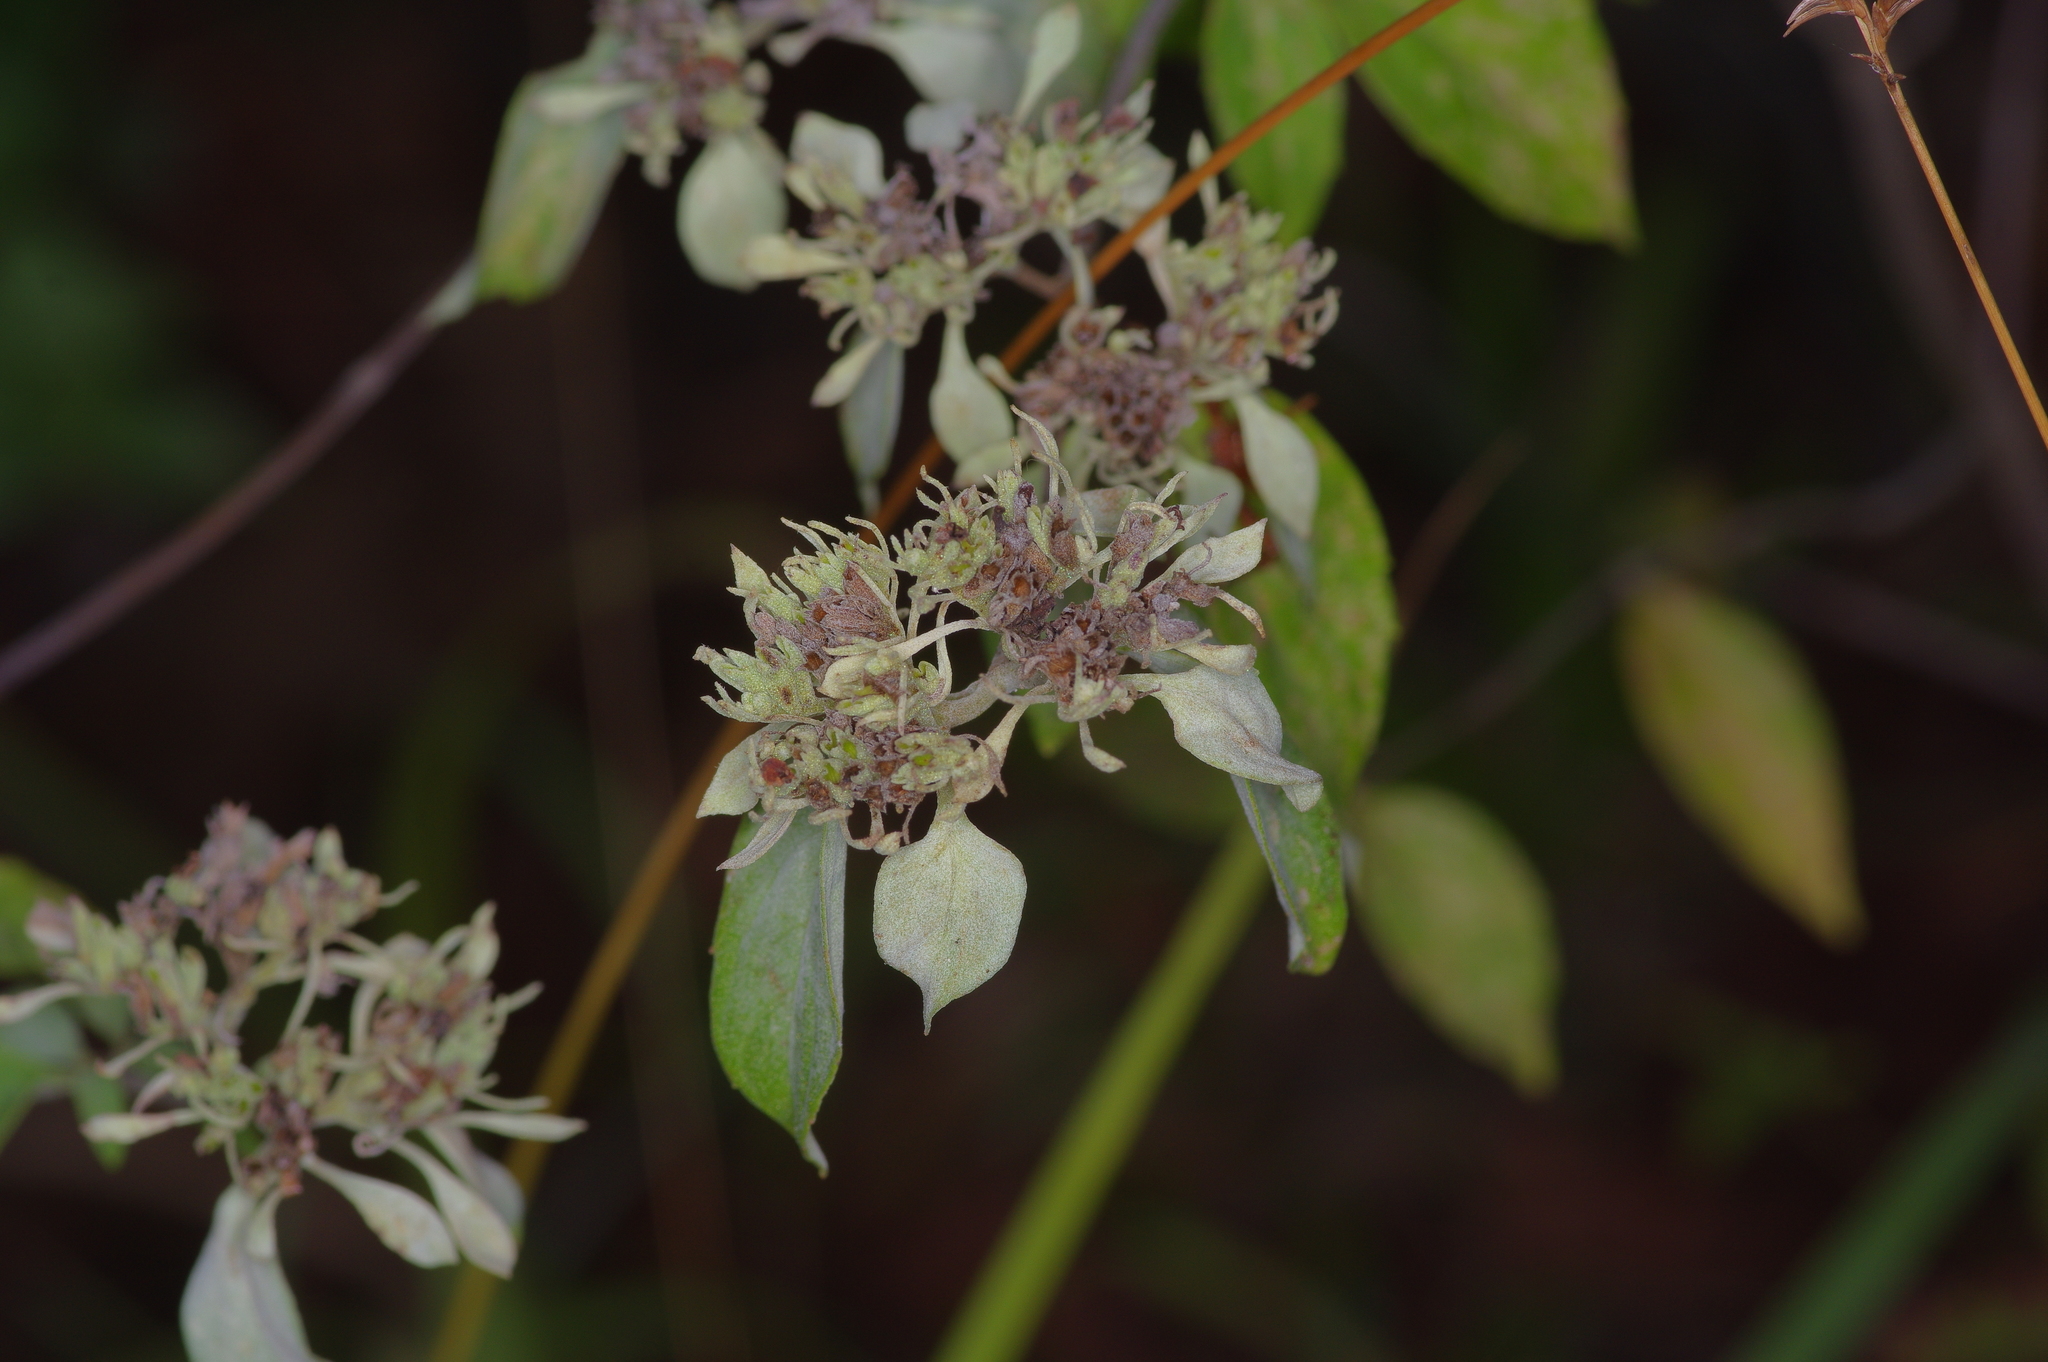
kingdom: Plantae
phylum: Tracheophyta
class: Magnoliopsida
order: Lamiales
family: Lamiaceae
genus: Pycnanthemum
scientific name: Pycnanthemum albescens
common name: White-leaf mountain-mint
